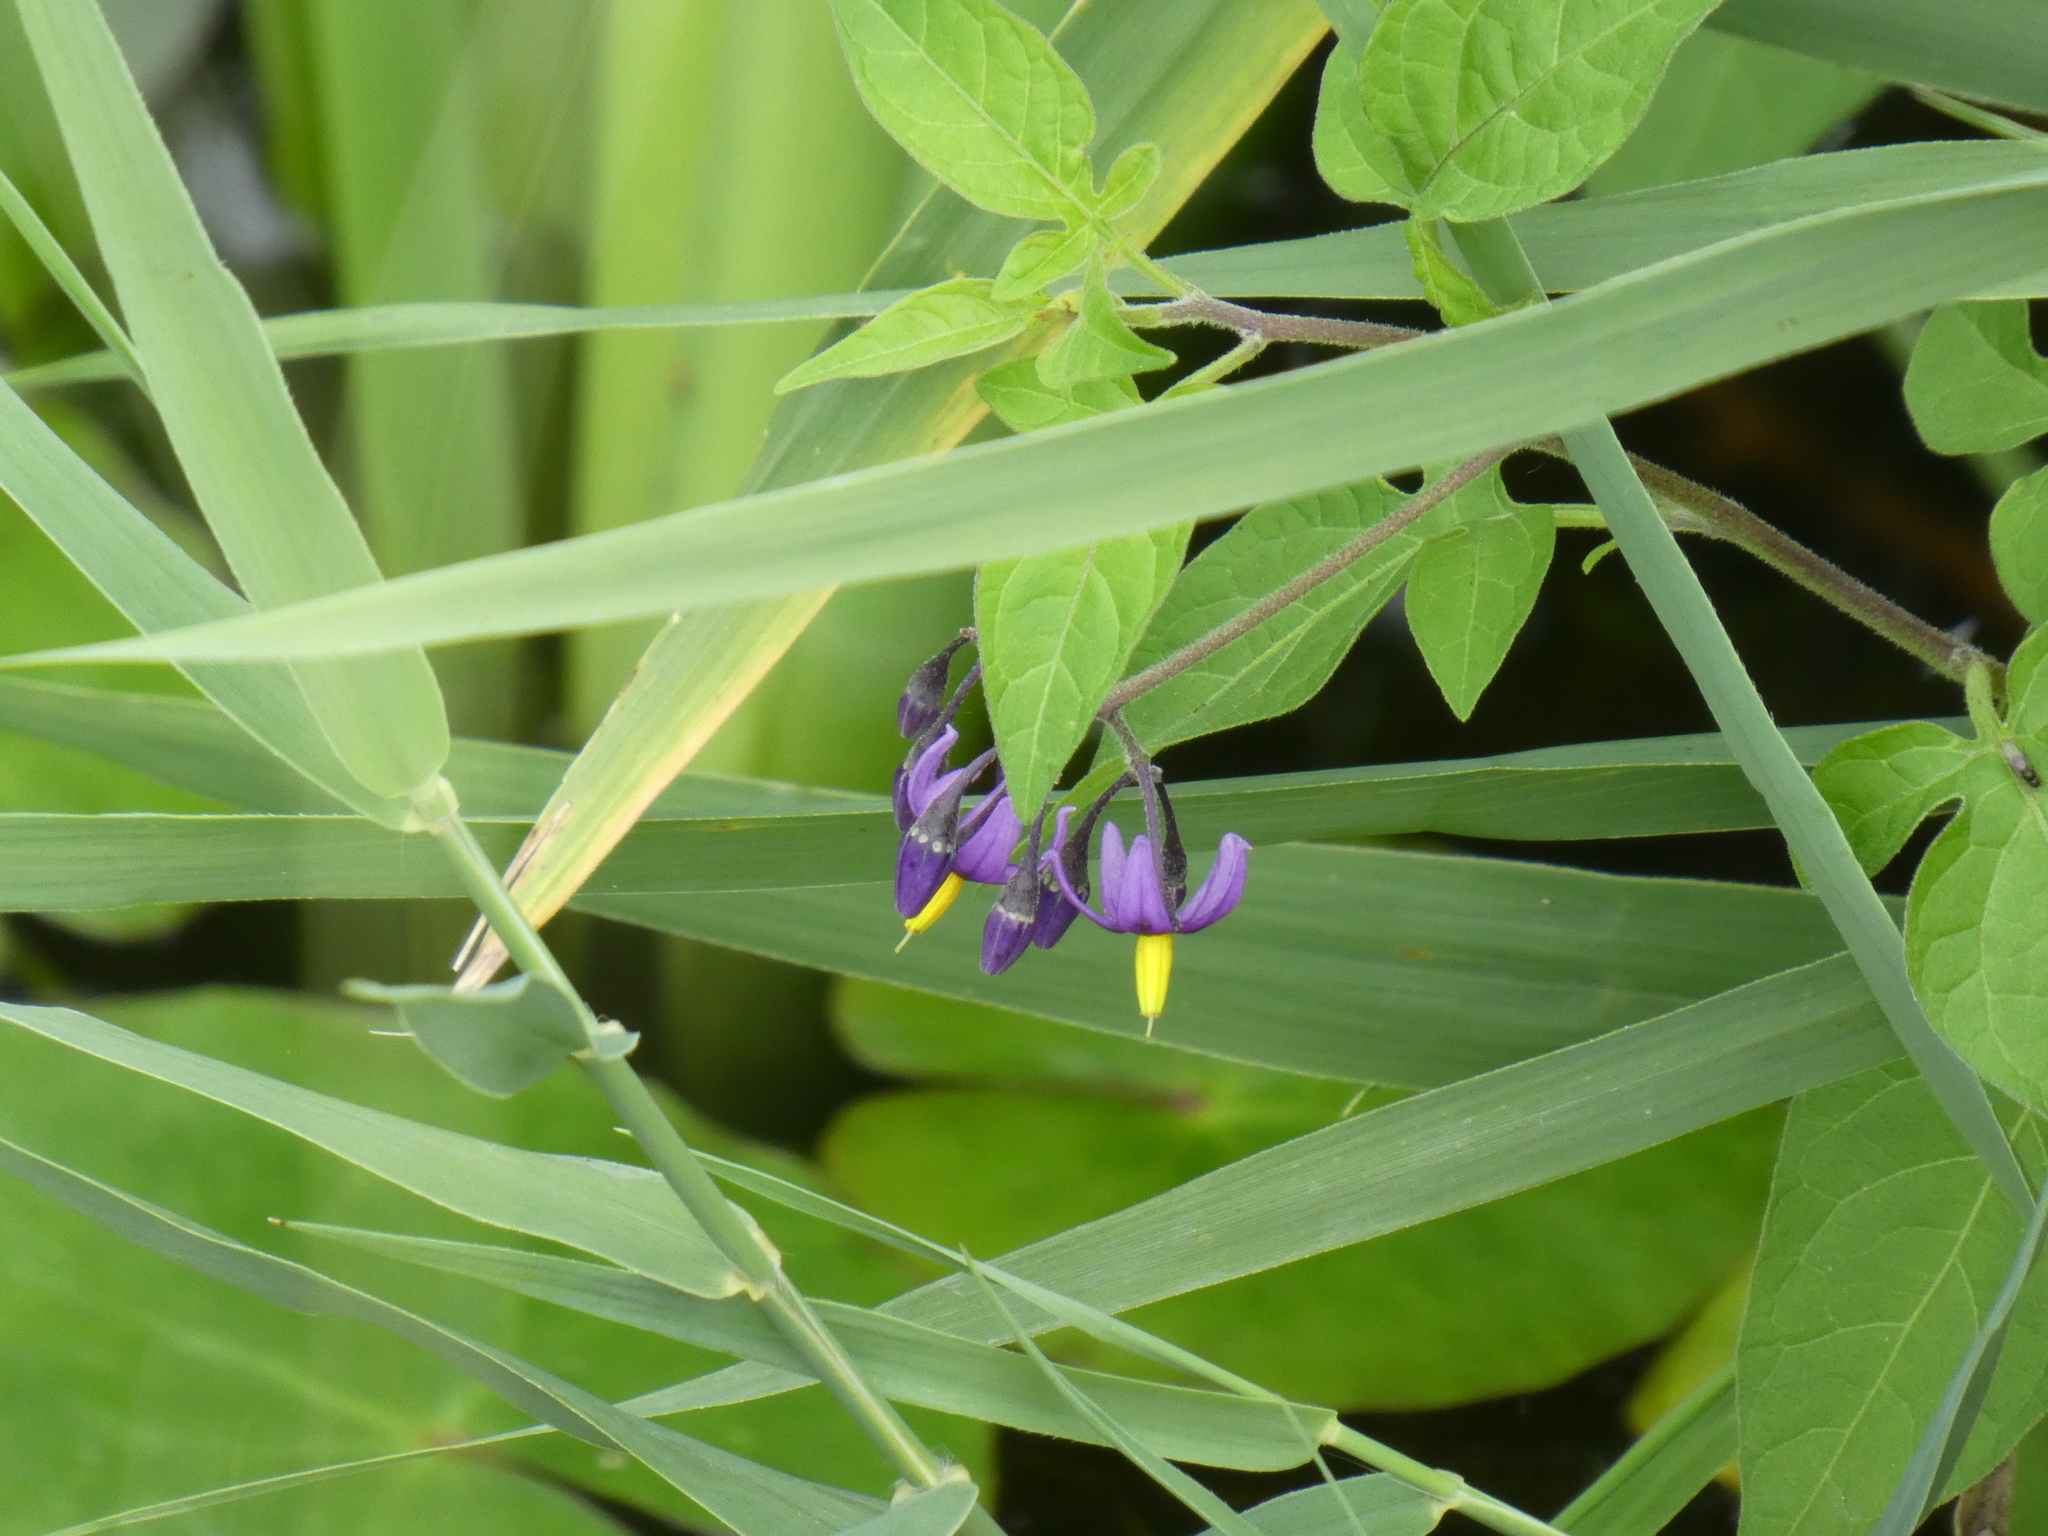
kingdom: Plantae
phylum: Tracheophyta
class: Magnoliopsida
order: Solanales
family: Solanaceae
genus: Solanum
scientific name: Solanum dulcamara
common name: Climbing nightshade
